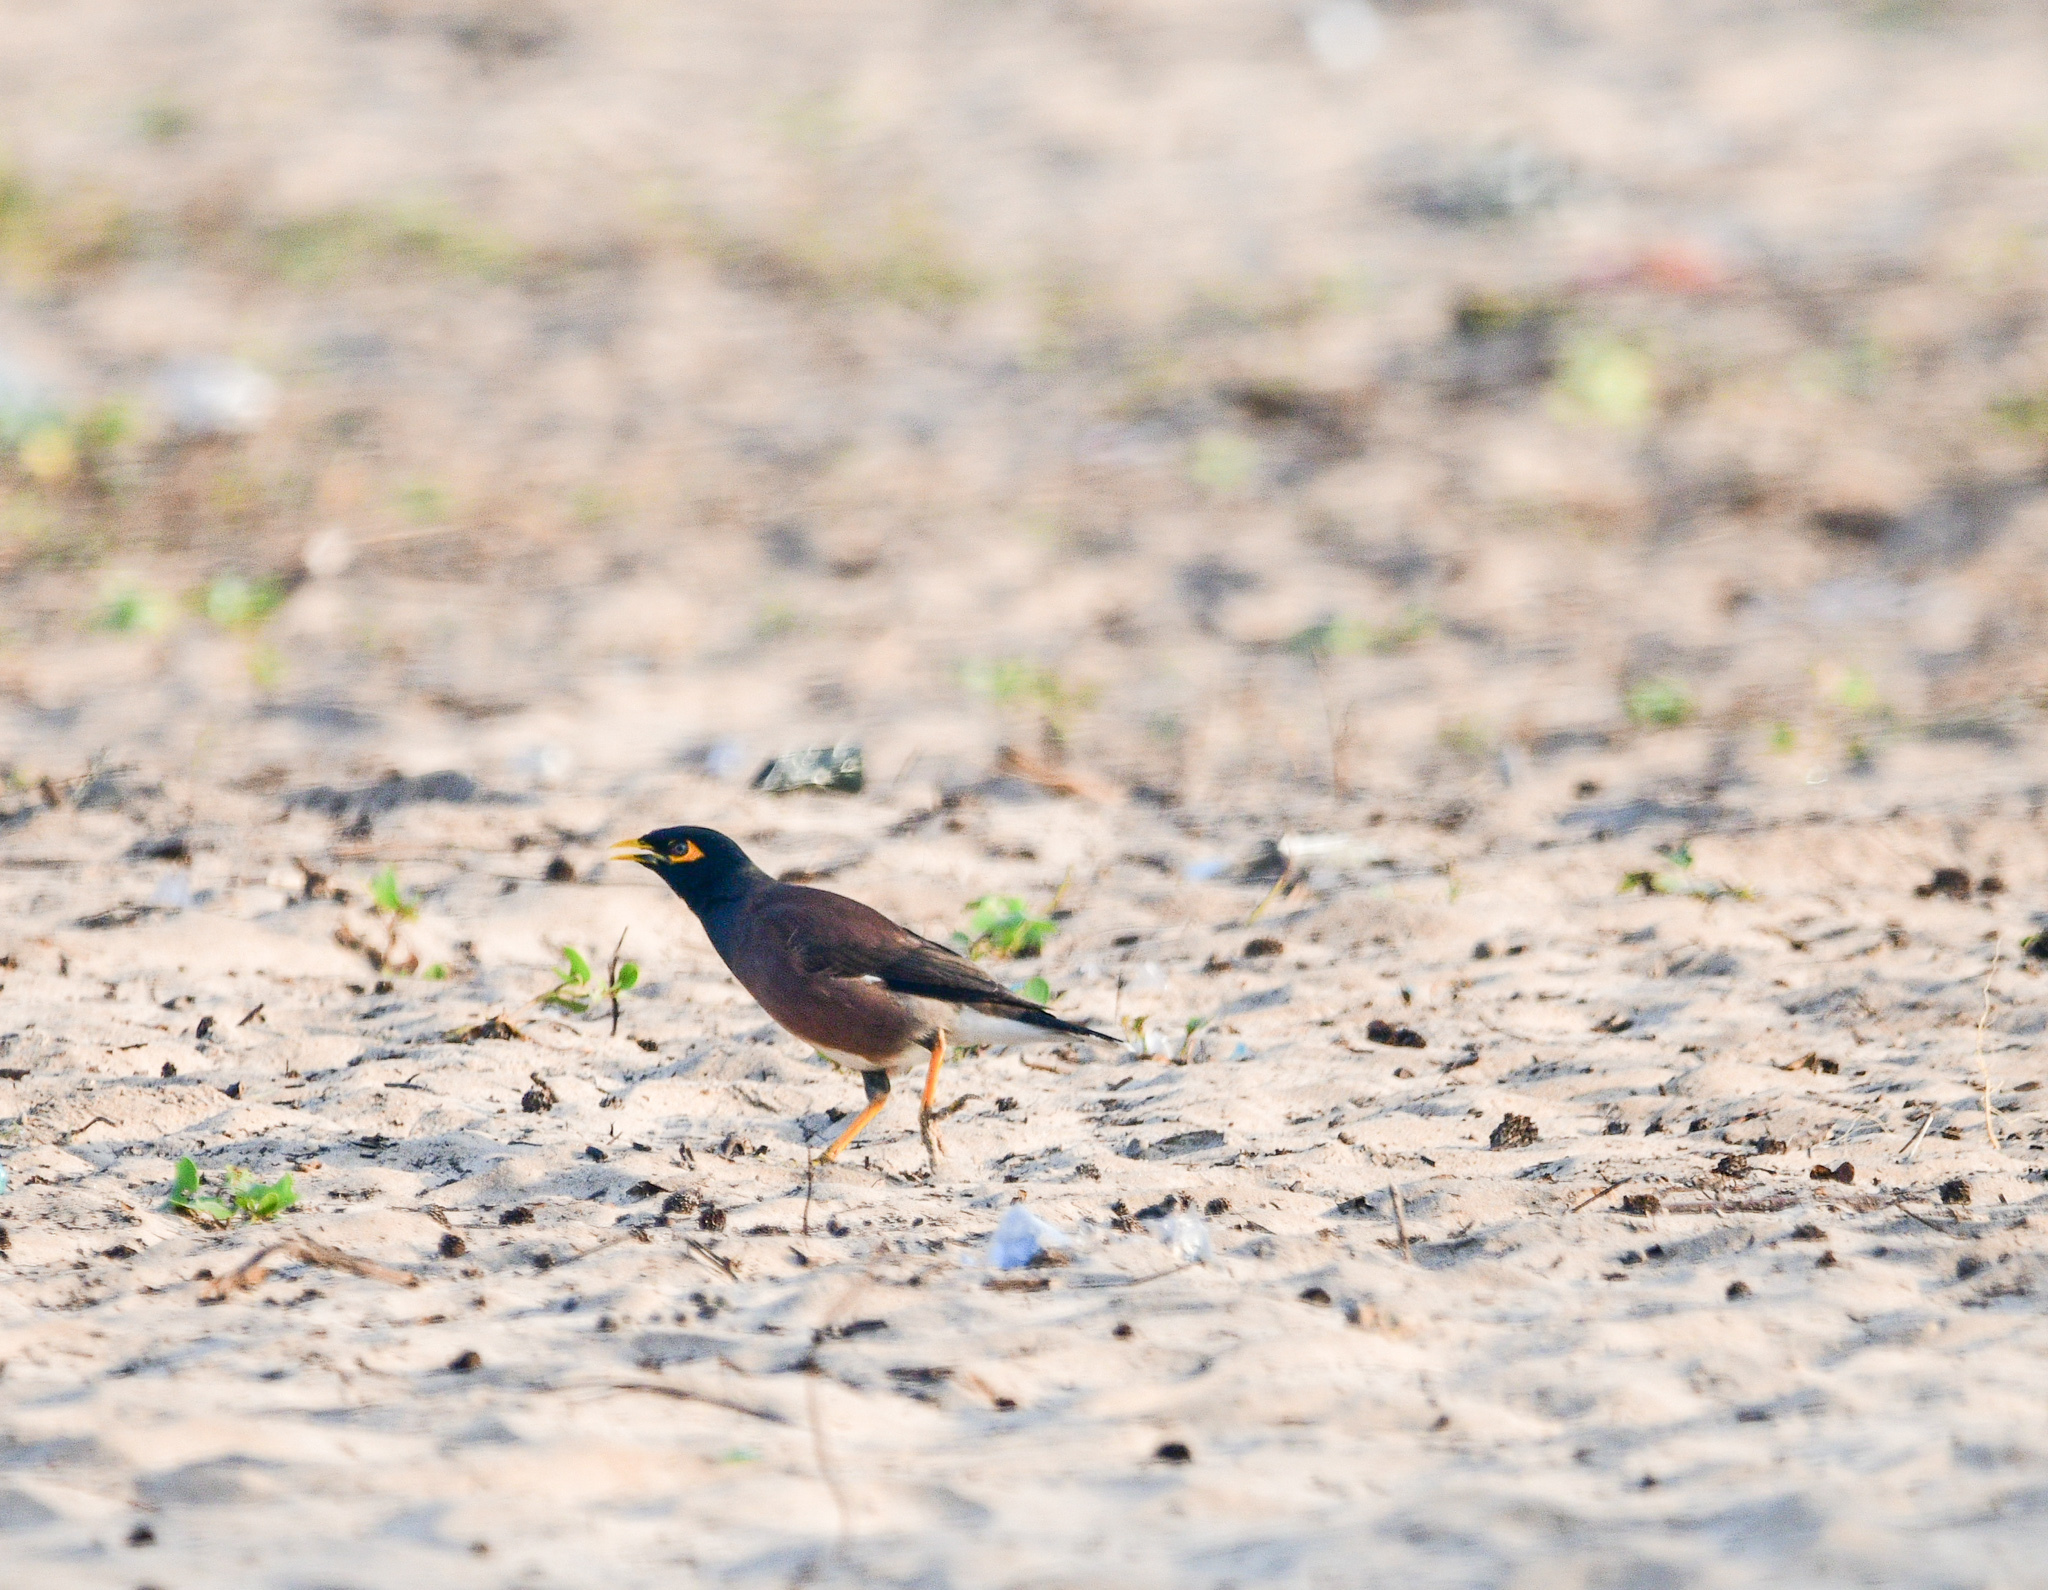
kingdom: Animalia
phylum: Chordata
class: Aves
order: Passeriformes
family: Sturnidae
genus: Acridotheres
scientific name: Acridotheres tristis
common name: Common myna
